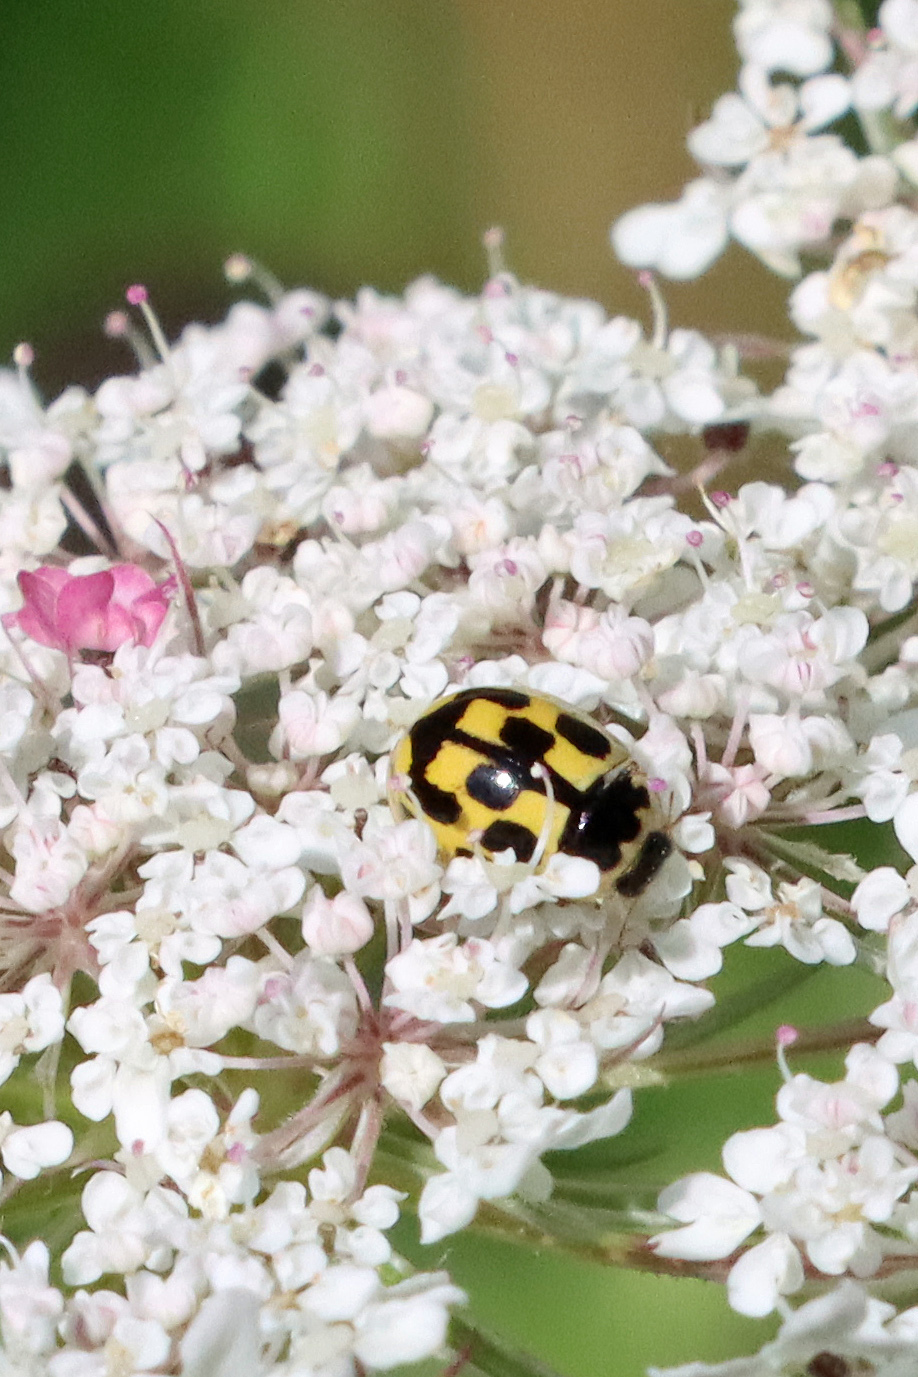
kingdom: Animalia
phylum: Arthropoda
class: Insecta
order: Coleoptera
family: Coccinellidae
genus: Propylaea
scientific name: Propylaea quatuordecimpunctata
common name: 14-spotted ladybird beetle
